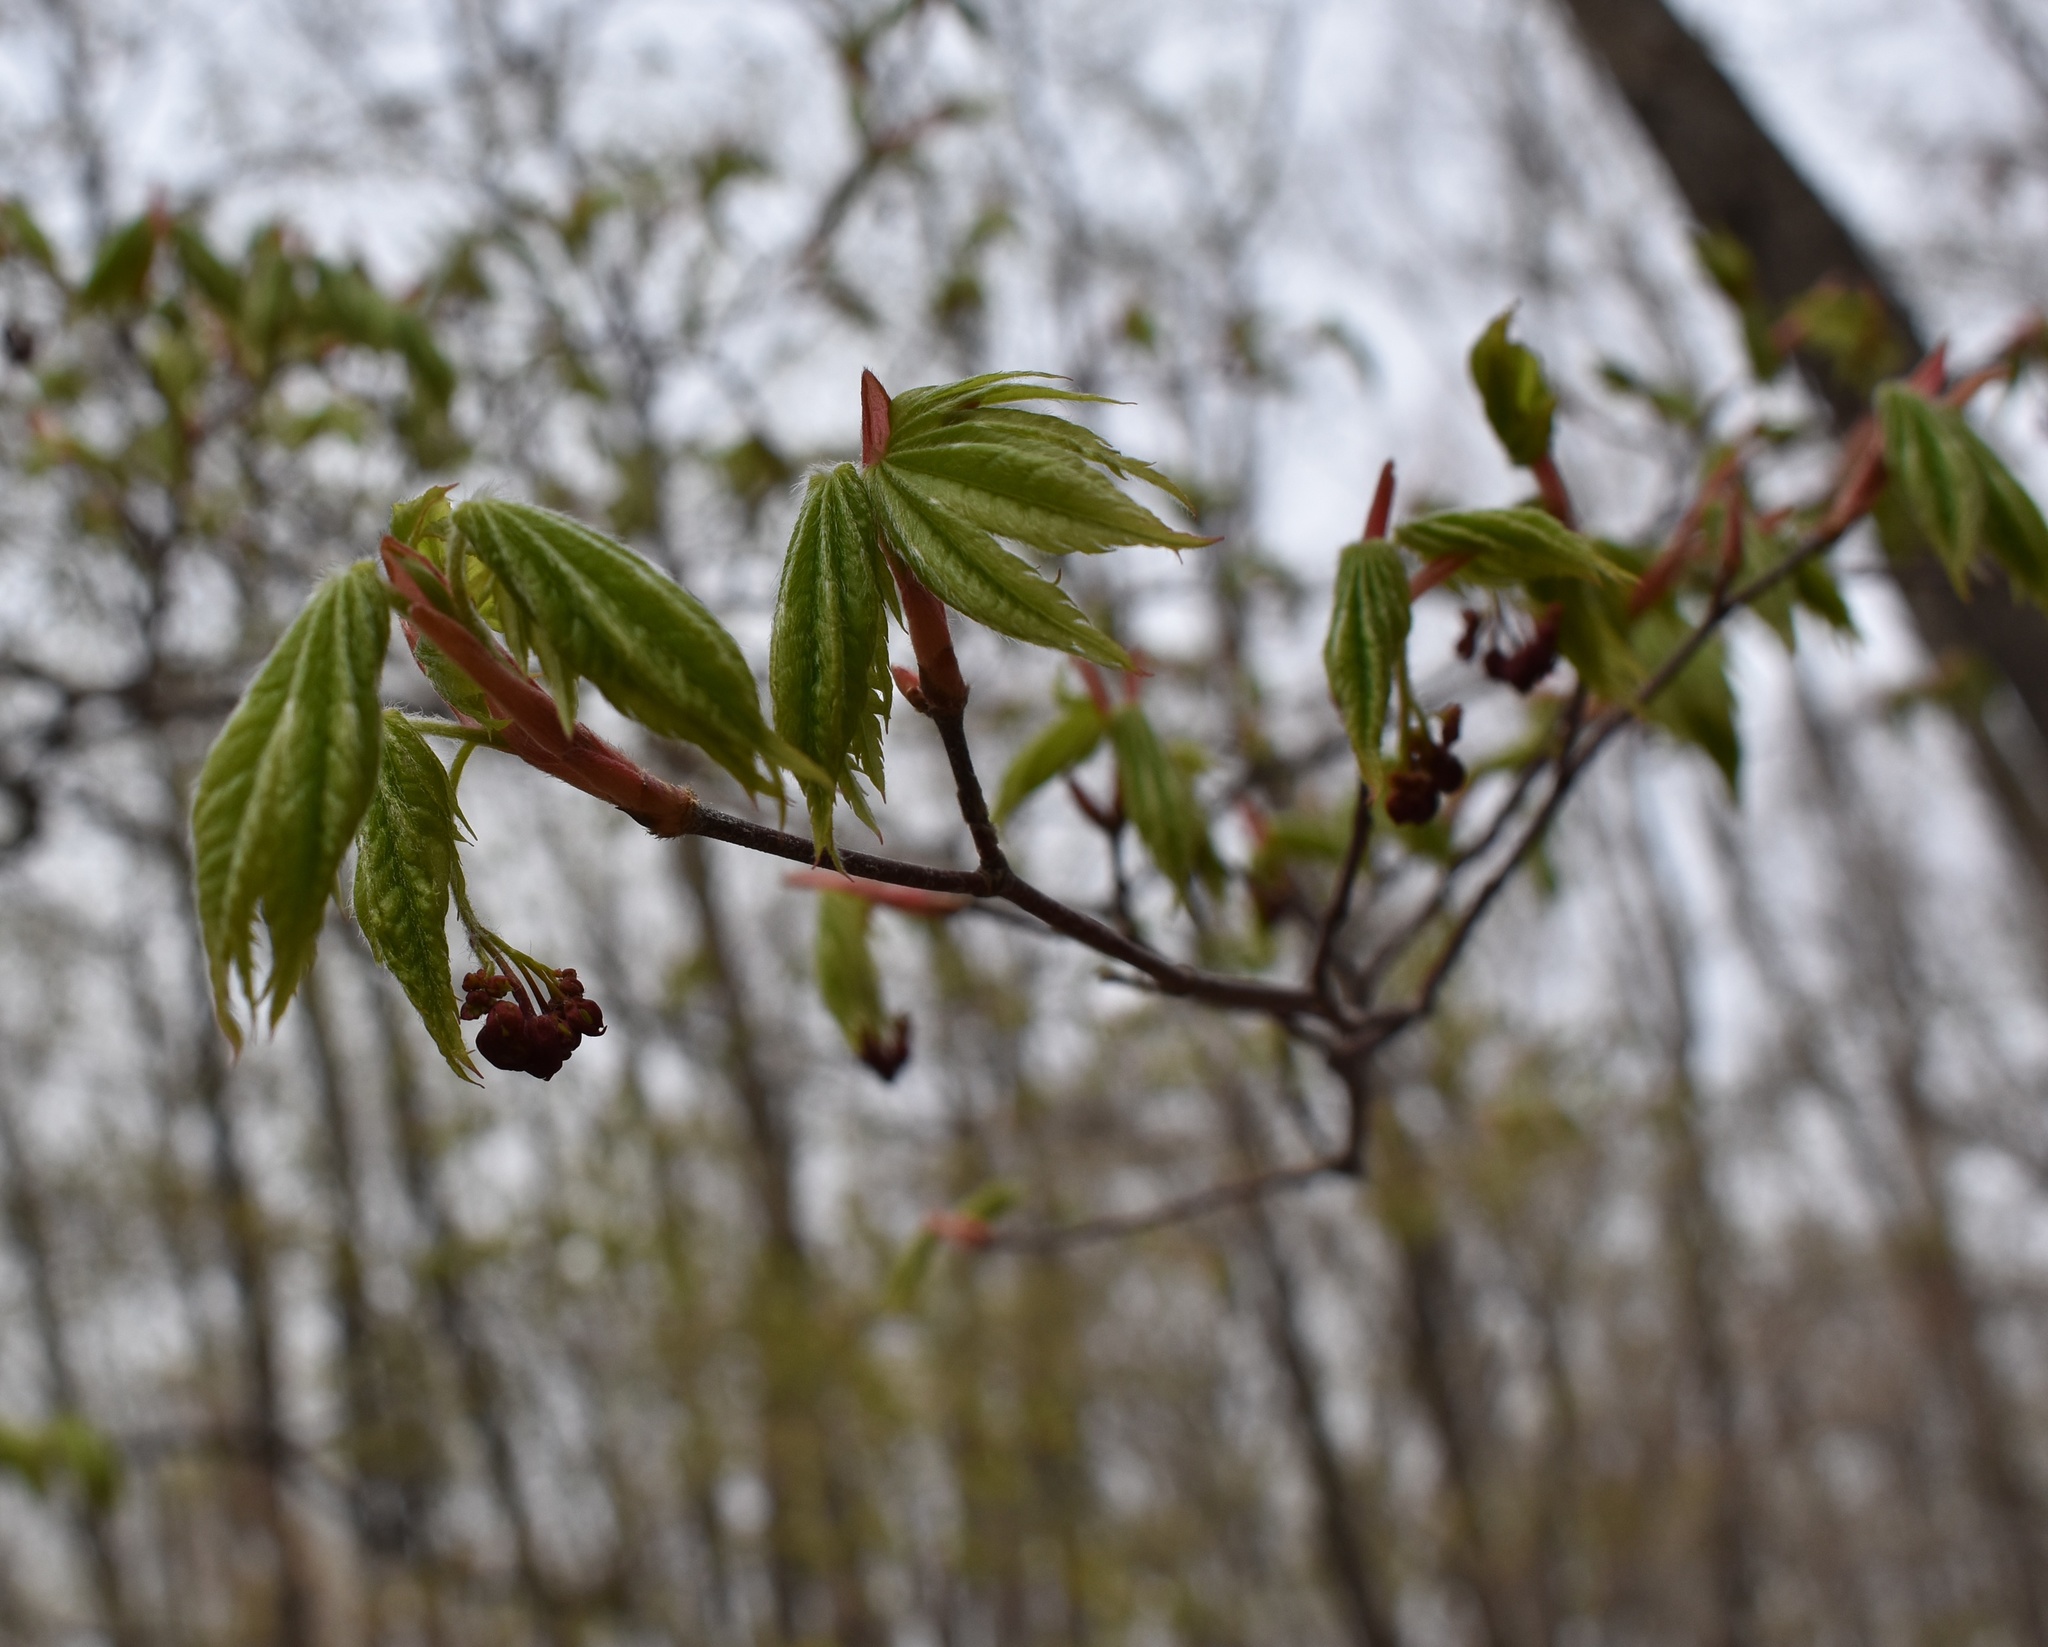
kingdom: Plantae
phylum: Tracheophyta
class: Magnoliopsida
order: Sapindales
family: Sapindaceae
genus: Acer
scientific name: Acer pseudosieboldianum
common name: Korean maple
